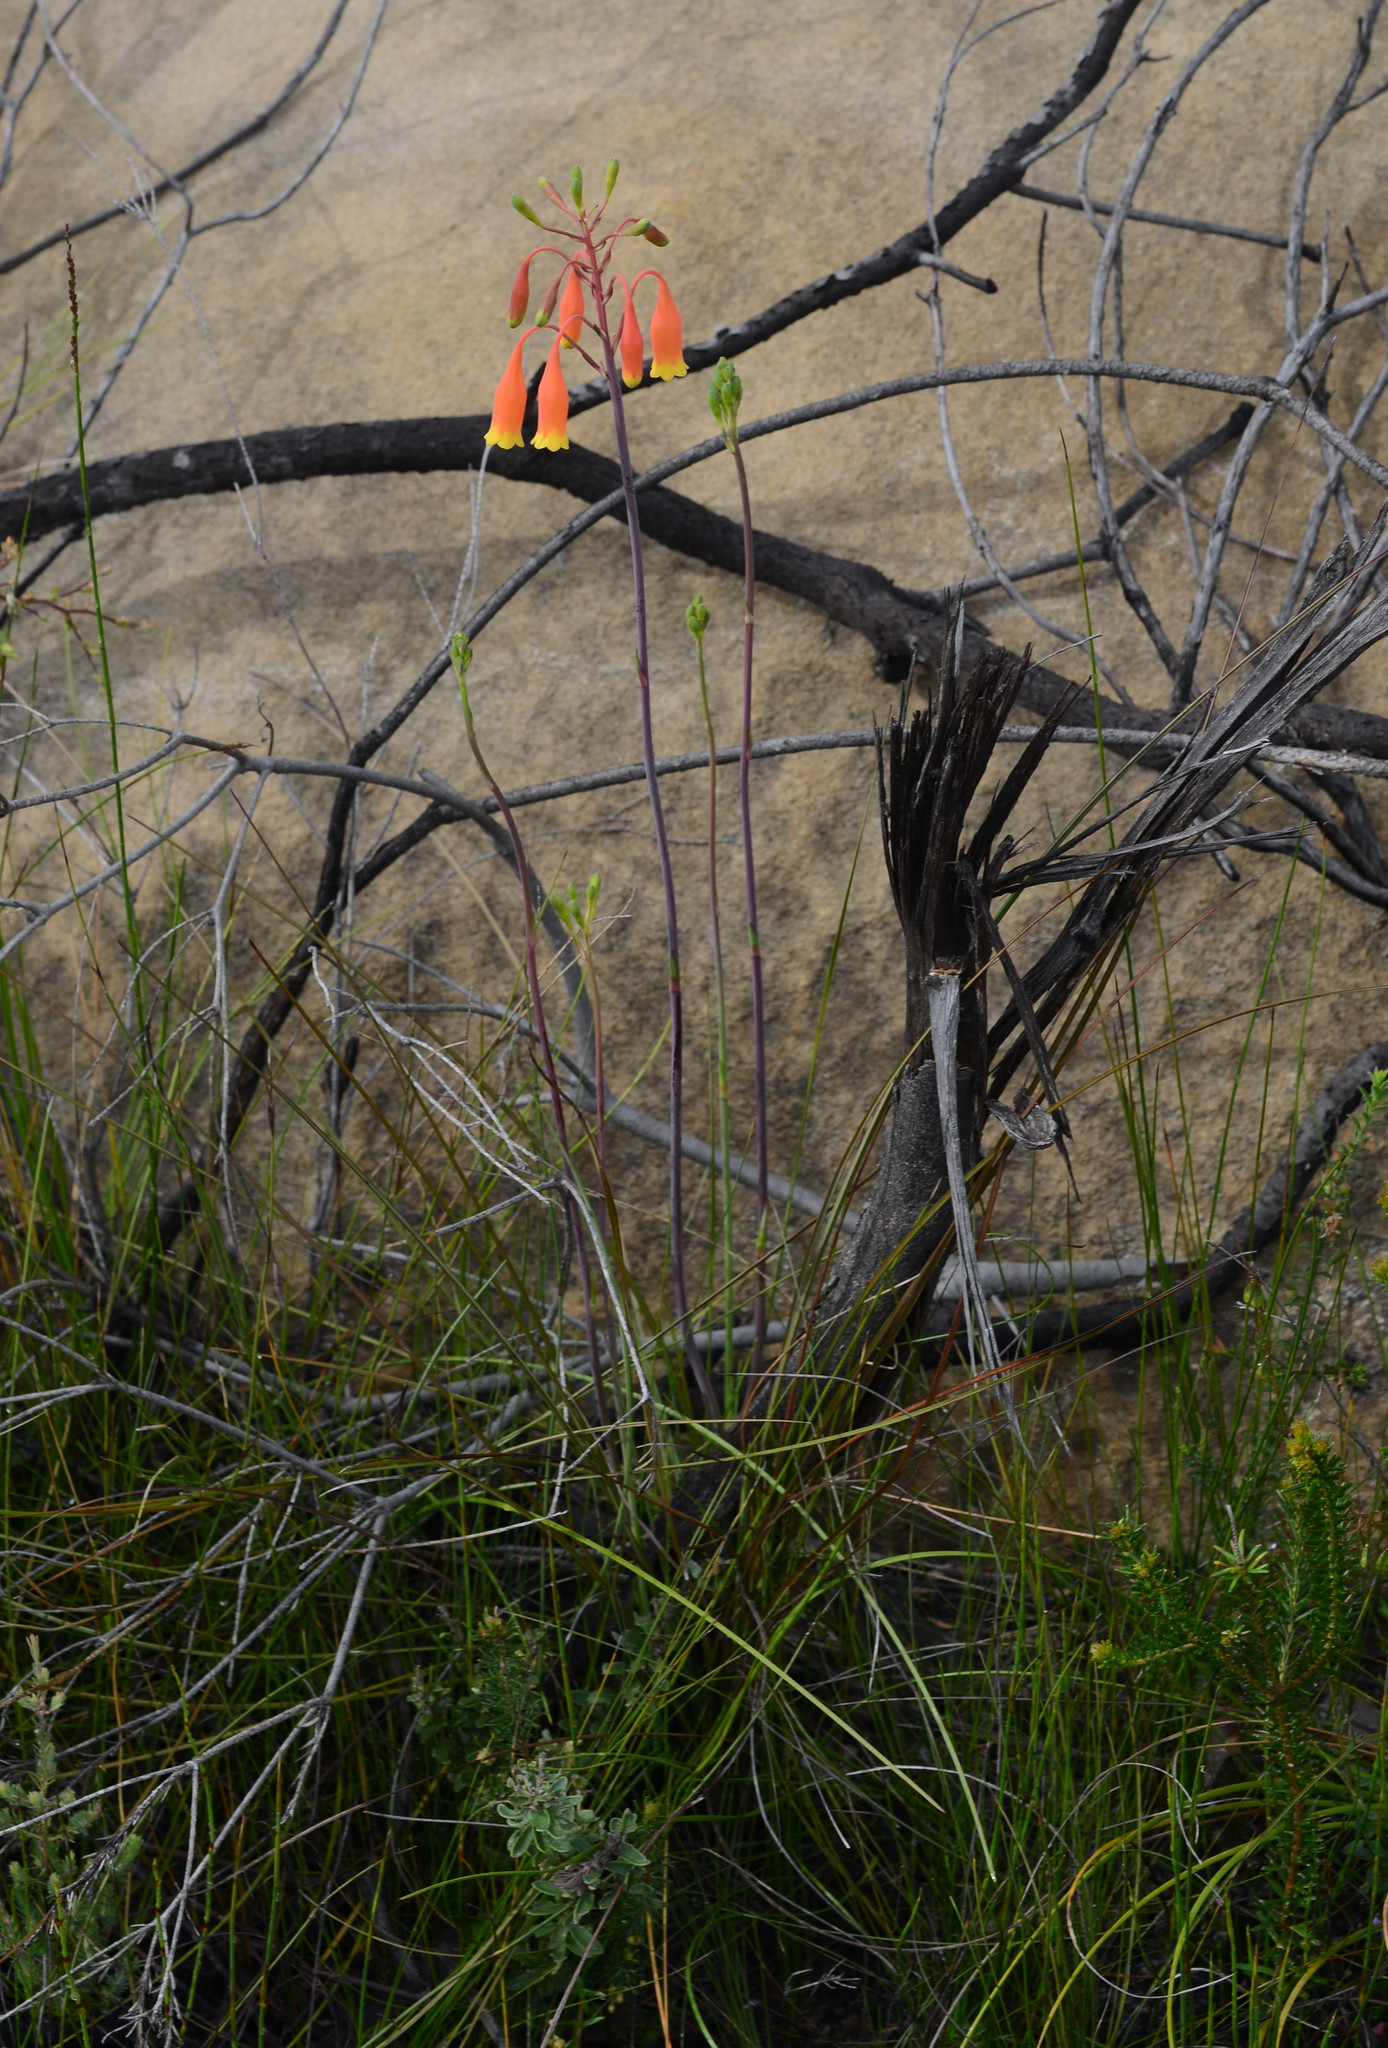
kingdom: Plantae
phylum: Tracheophyta
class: Liliopsida
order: Asparagales
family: Blandfordiaceae
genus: Blandfordia
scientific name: Blandfordia nobilis
